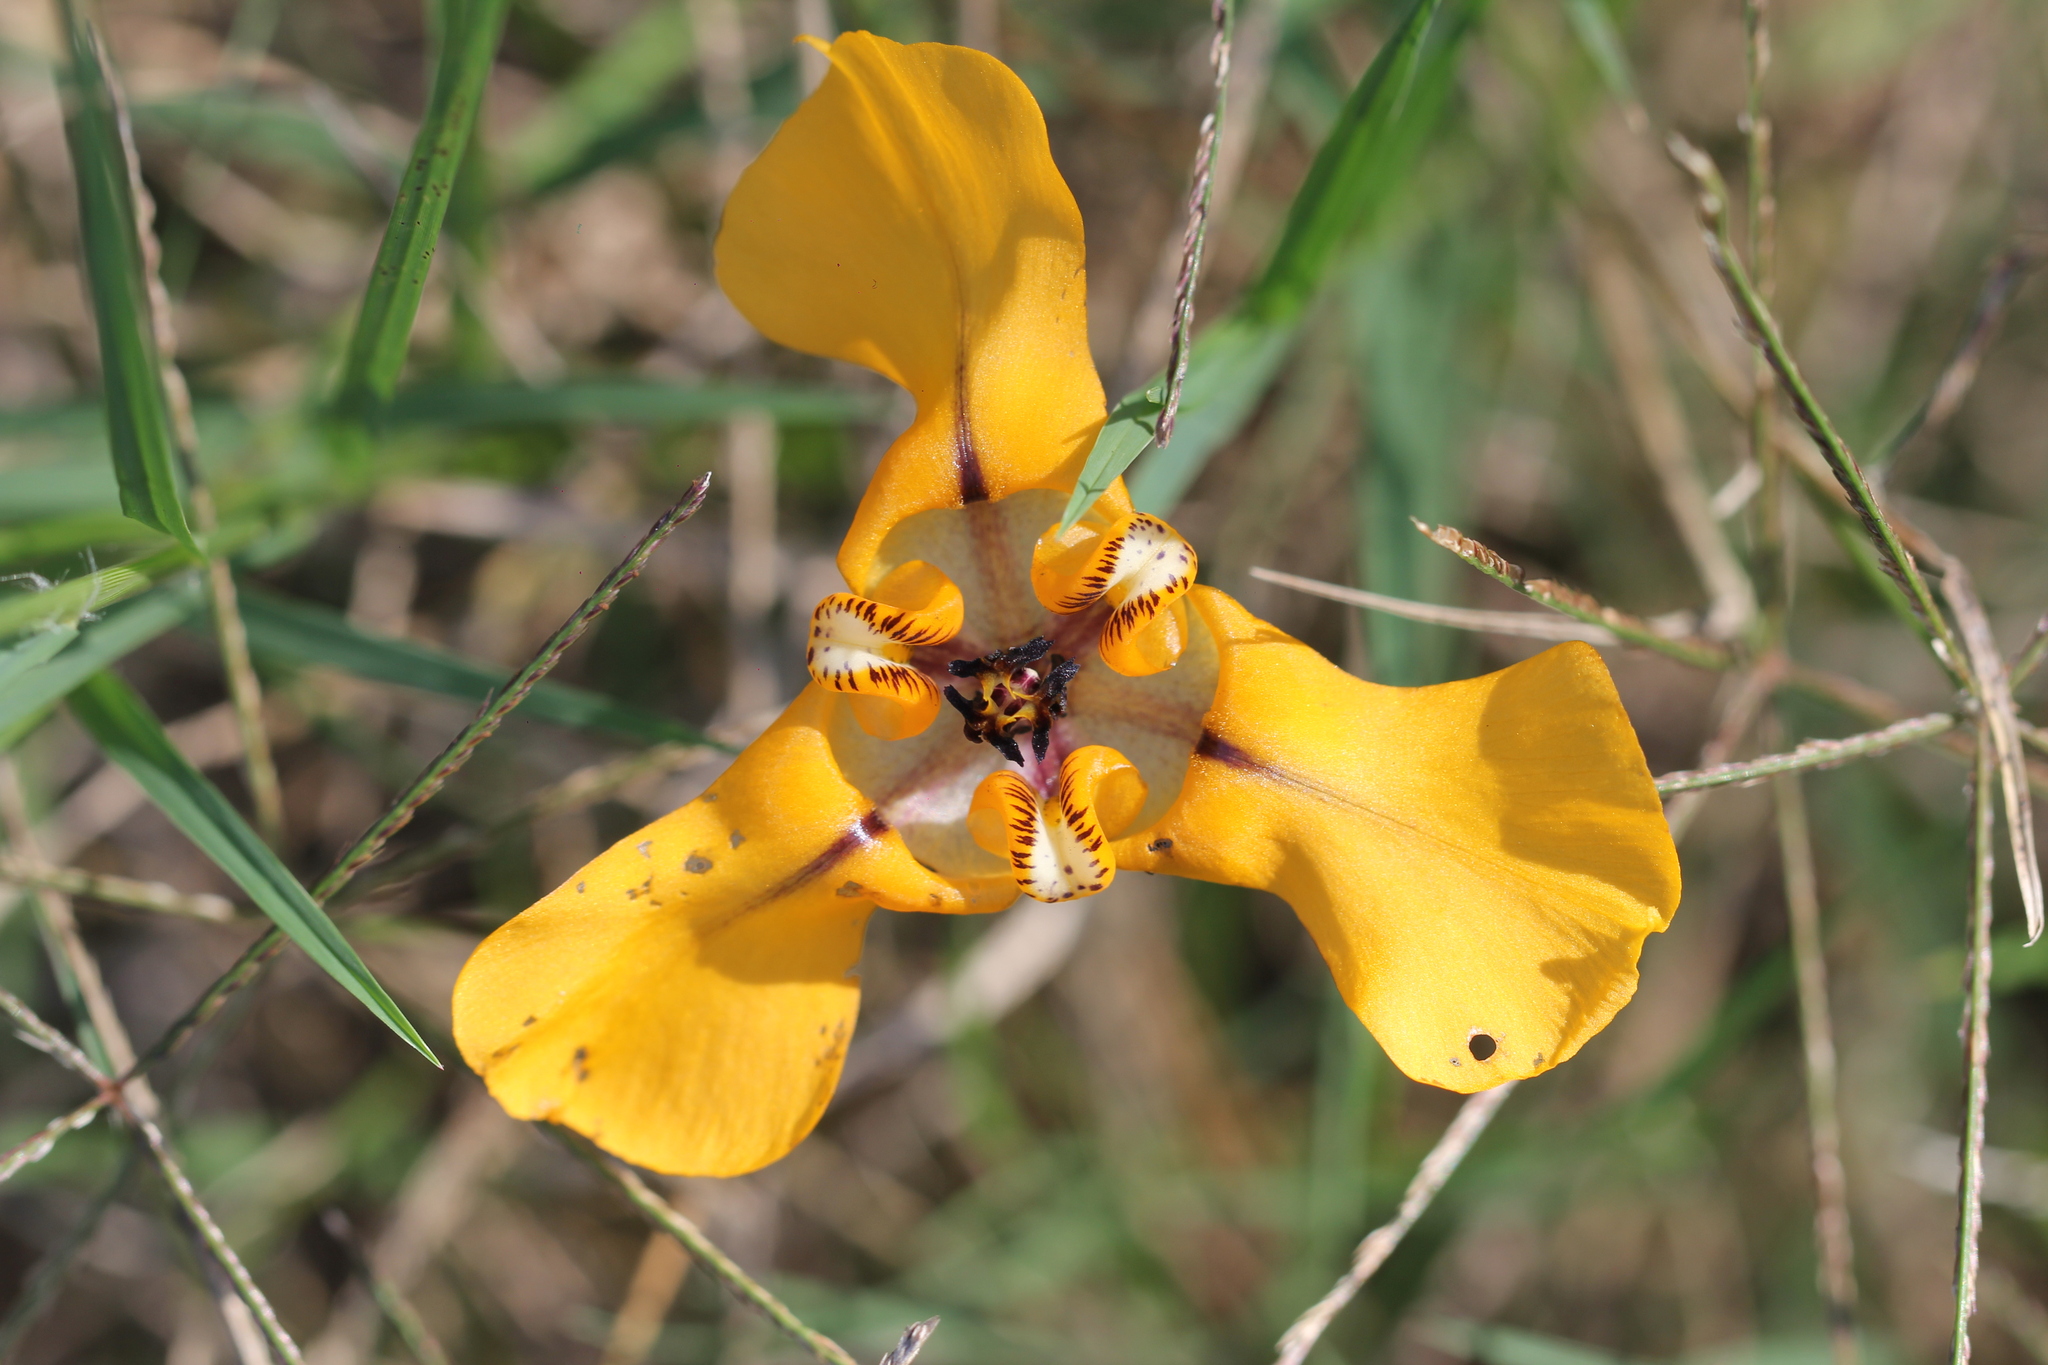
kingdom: Plantae
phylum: Tracheophyta
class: Liliopsida
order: Asparagales
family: Iridaceae
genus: Cypella
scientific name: Cypella herbertii
